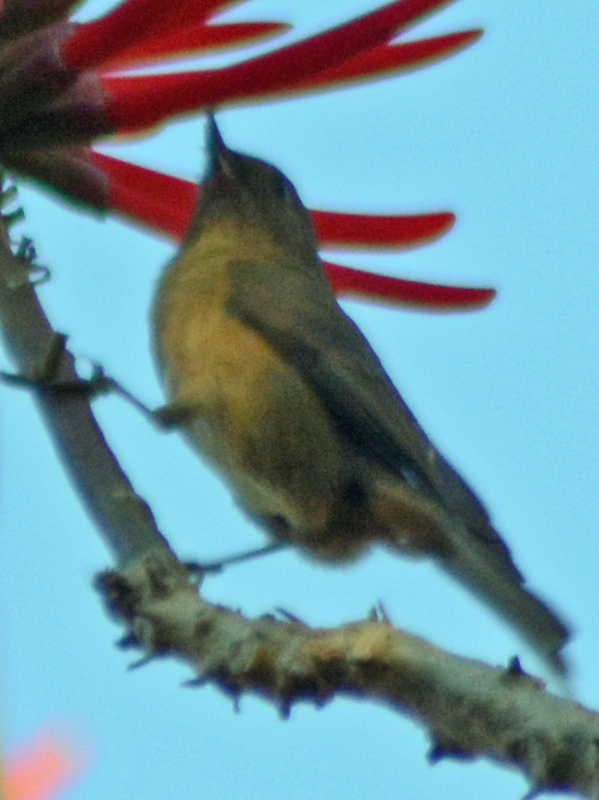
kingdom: Animalia
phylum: Chordata
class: Aves
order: Passeriformes
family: Thraupidae
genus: Diglossa
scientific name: Diglossa baritula
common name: Cinnamon-bellied flowerpiercer
